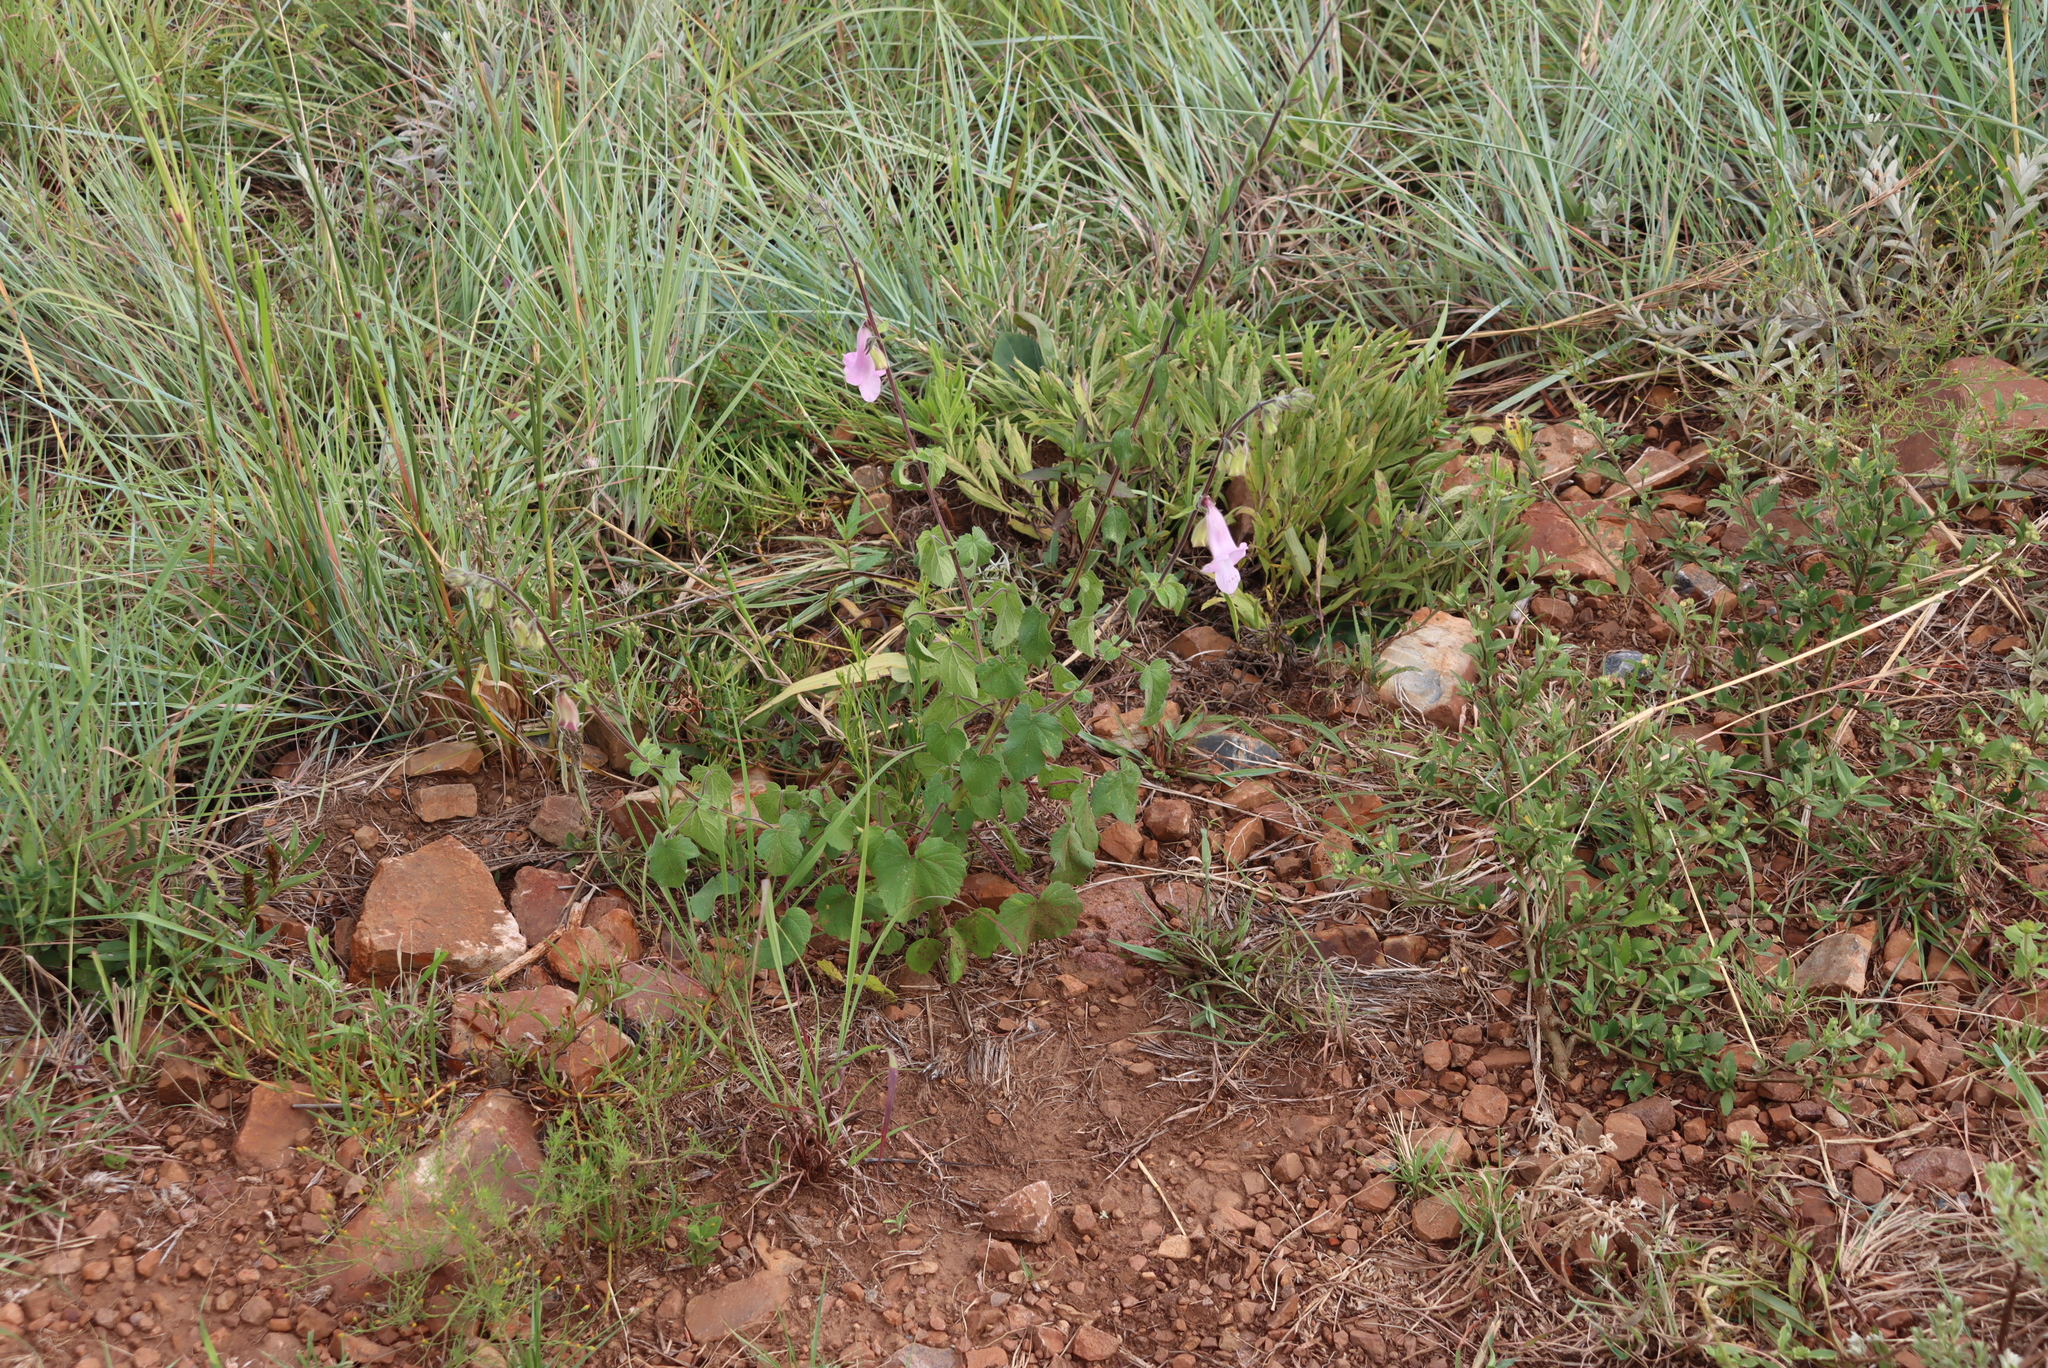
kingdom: Plantae
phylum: Tracheophyta
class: Magnoliopsida
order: Lamiales
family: Pedaliaceae
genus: Sesamum
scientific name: Sesamum trilobum
